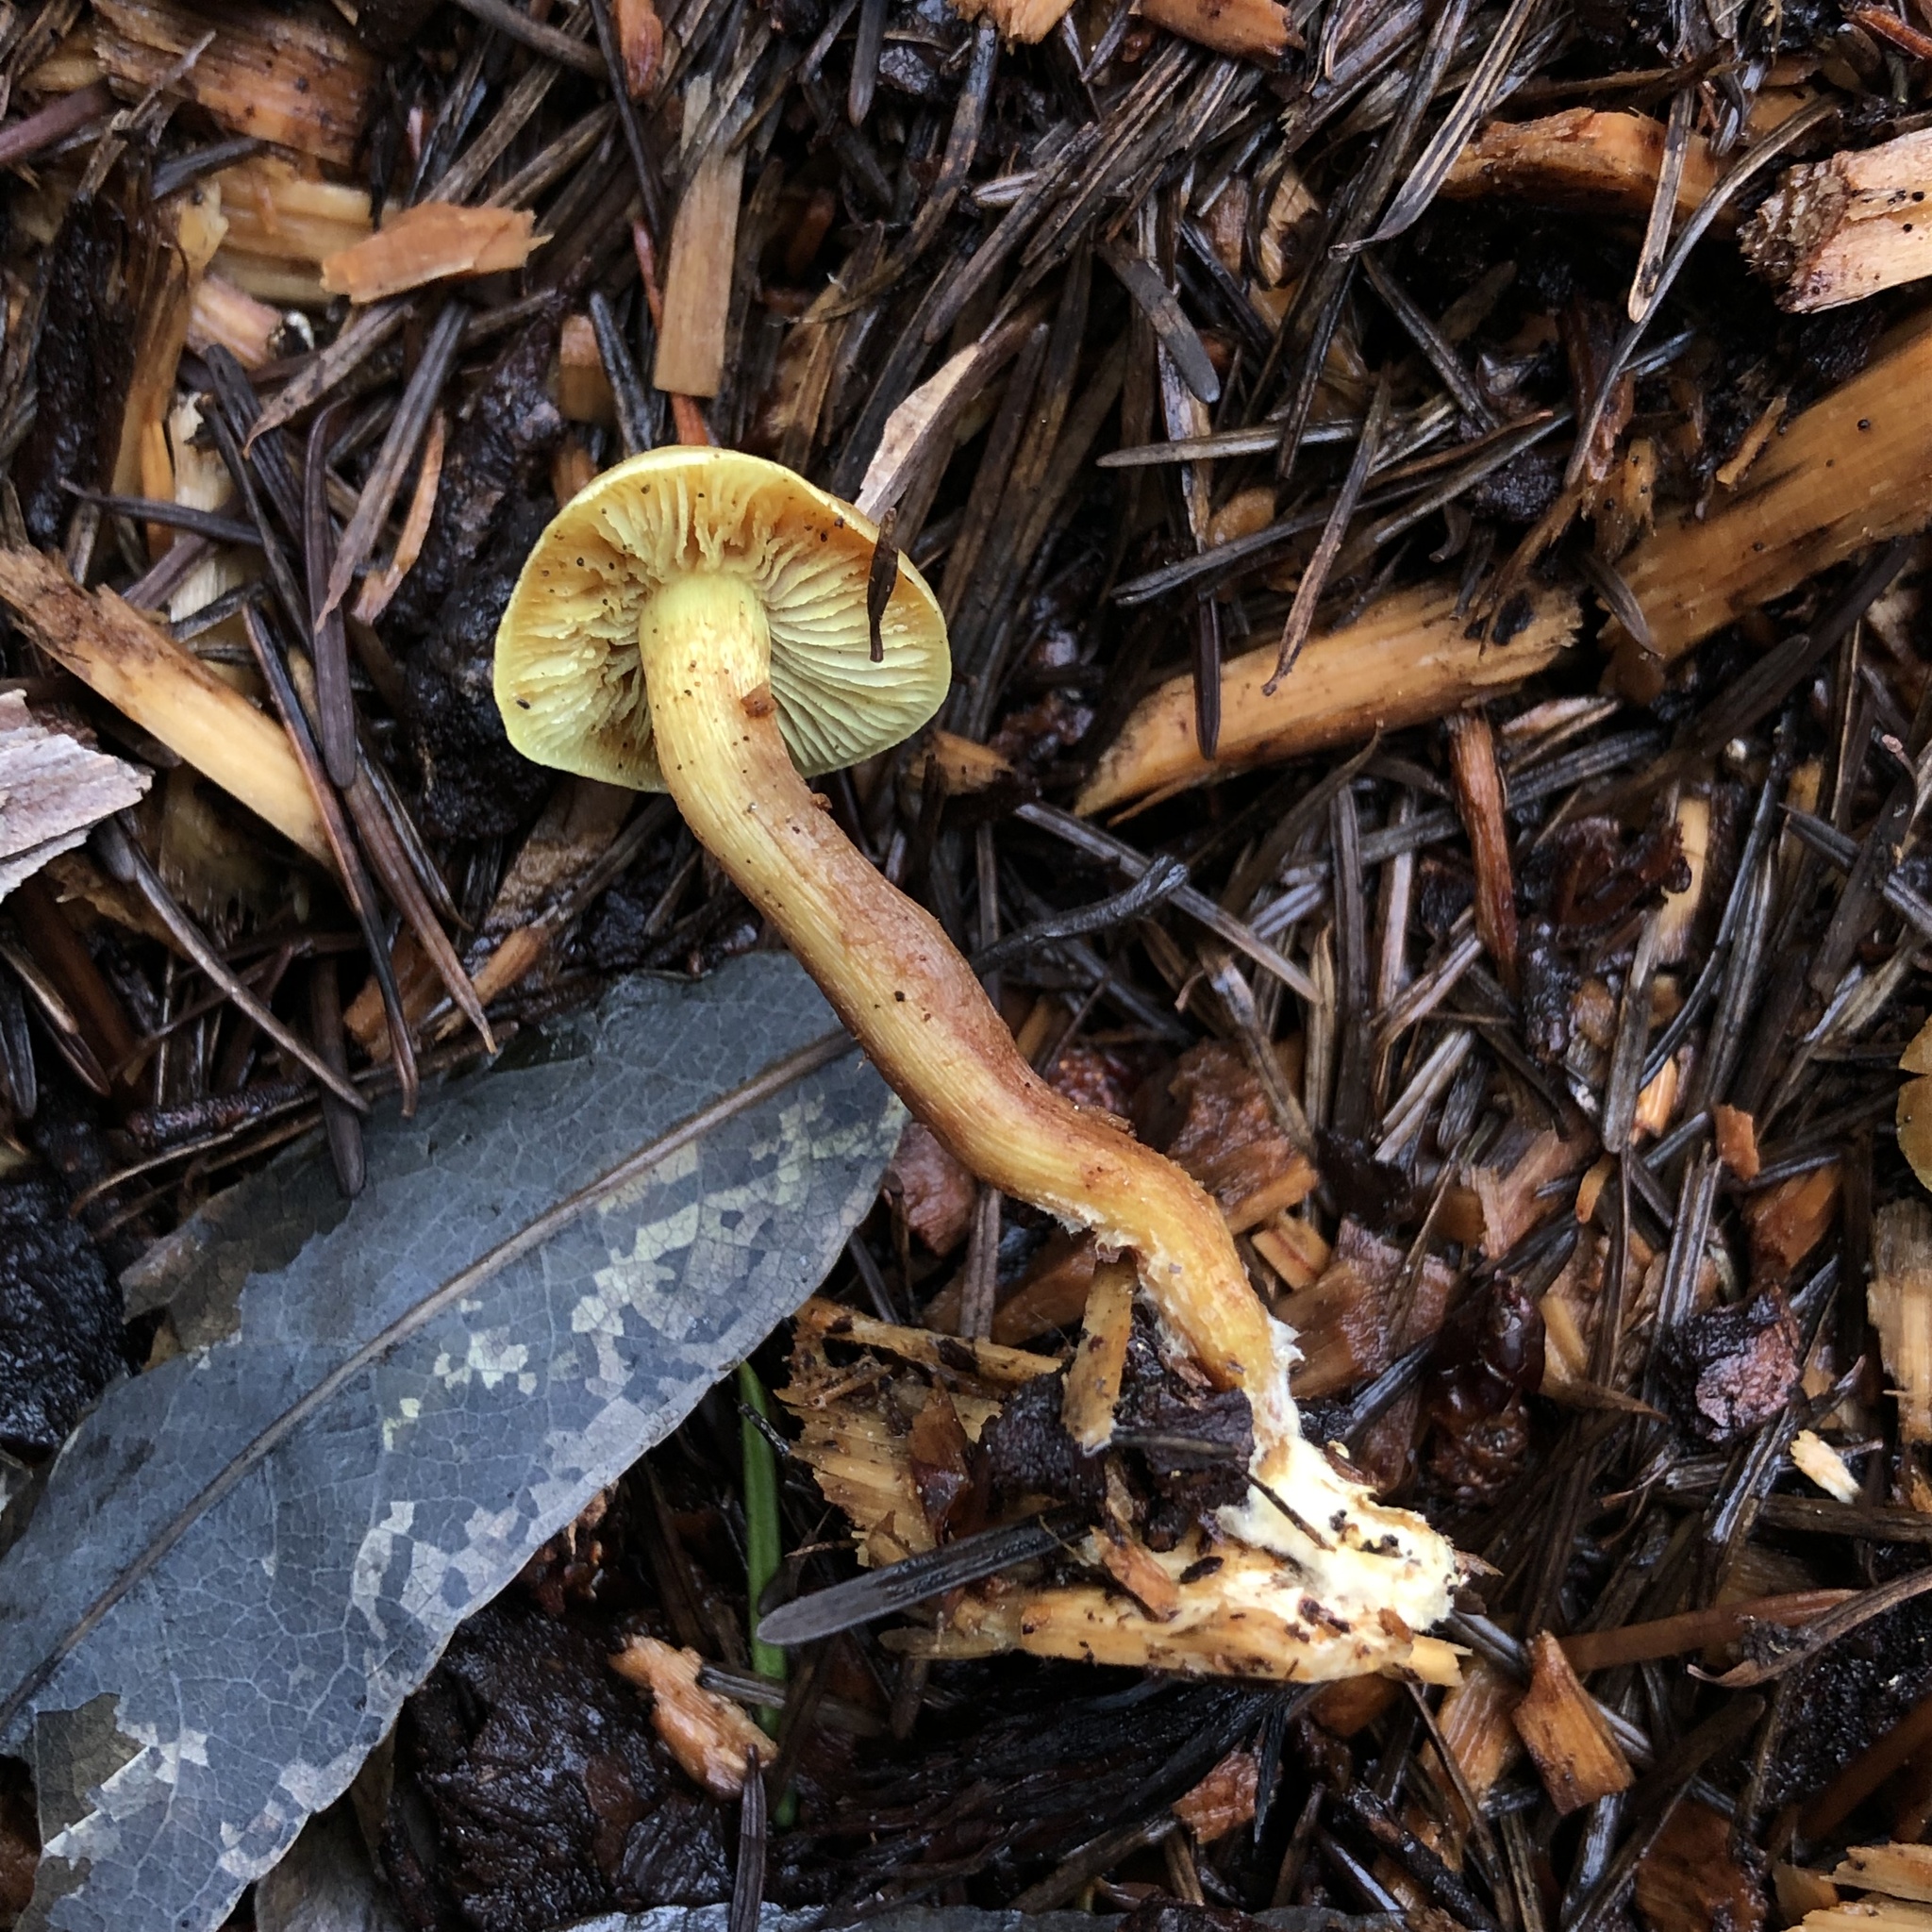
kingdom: Fungi
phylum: Basidiomycota
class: Agaricomycetes
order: Agaricales
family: Strophariaceae
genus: Hypholoma
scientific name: Hypholoma fasciculare
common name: Sulphur tuft
